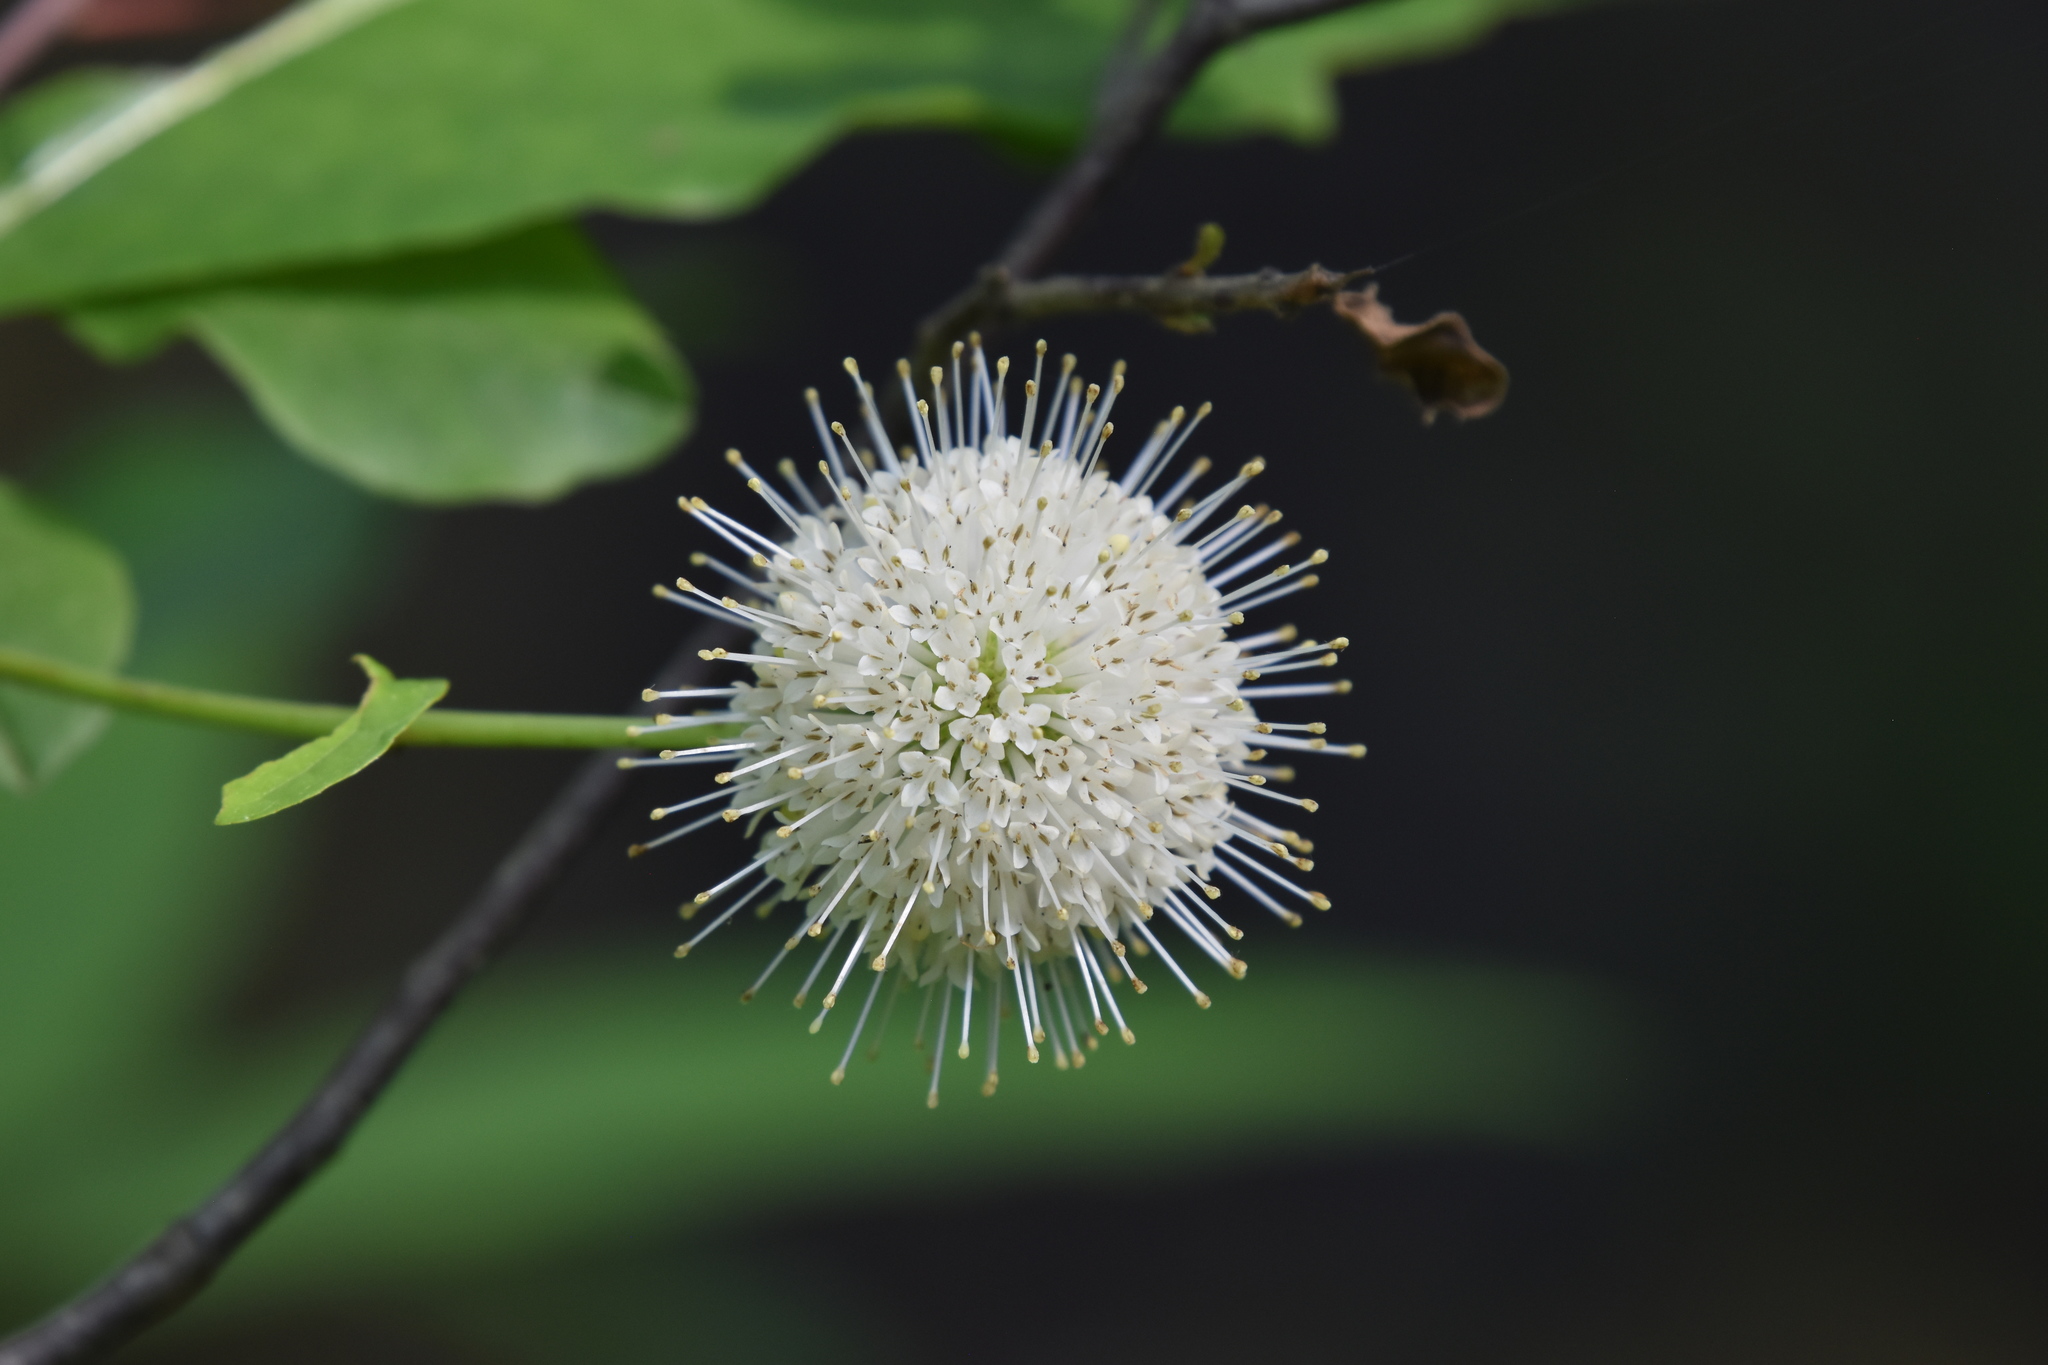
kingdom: Plantae
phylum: Tracheophyta
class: Magnoliopsida
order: Gentianales
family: Rubiaceae
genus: Cephalanthus
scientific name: Cephalanthus occidentalis
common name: Button-willow
